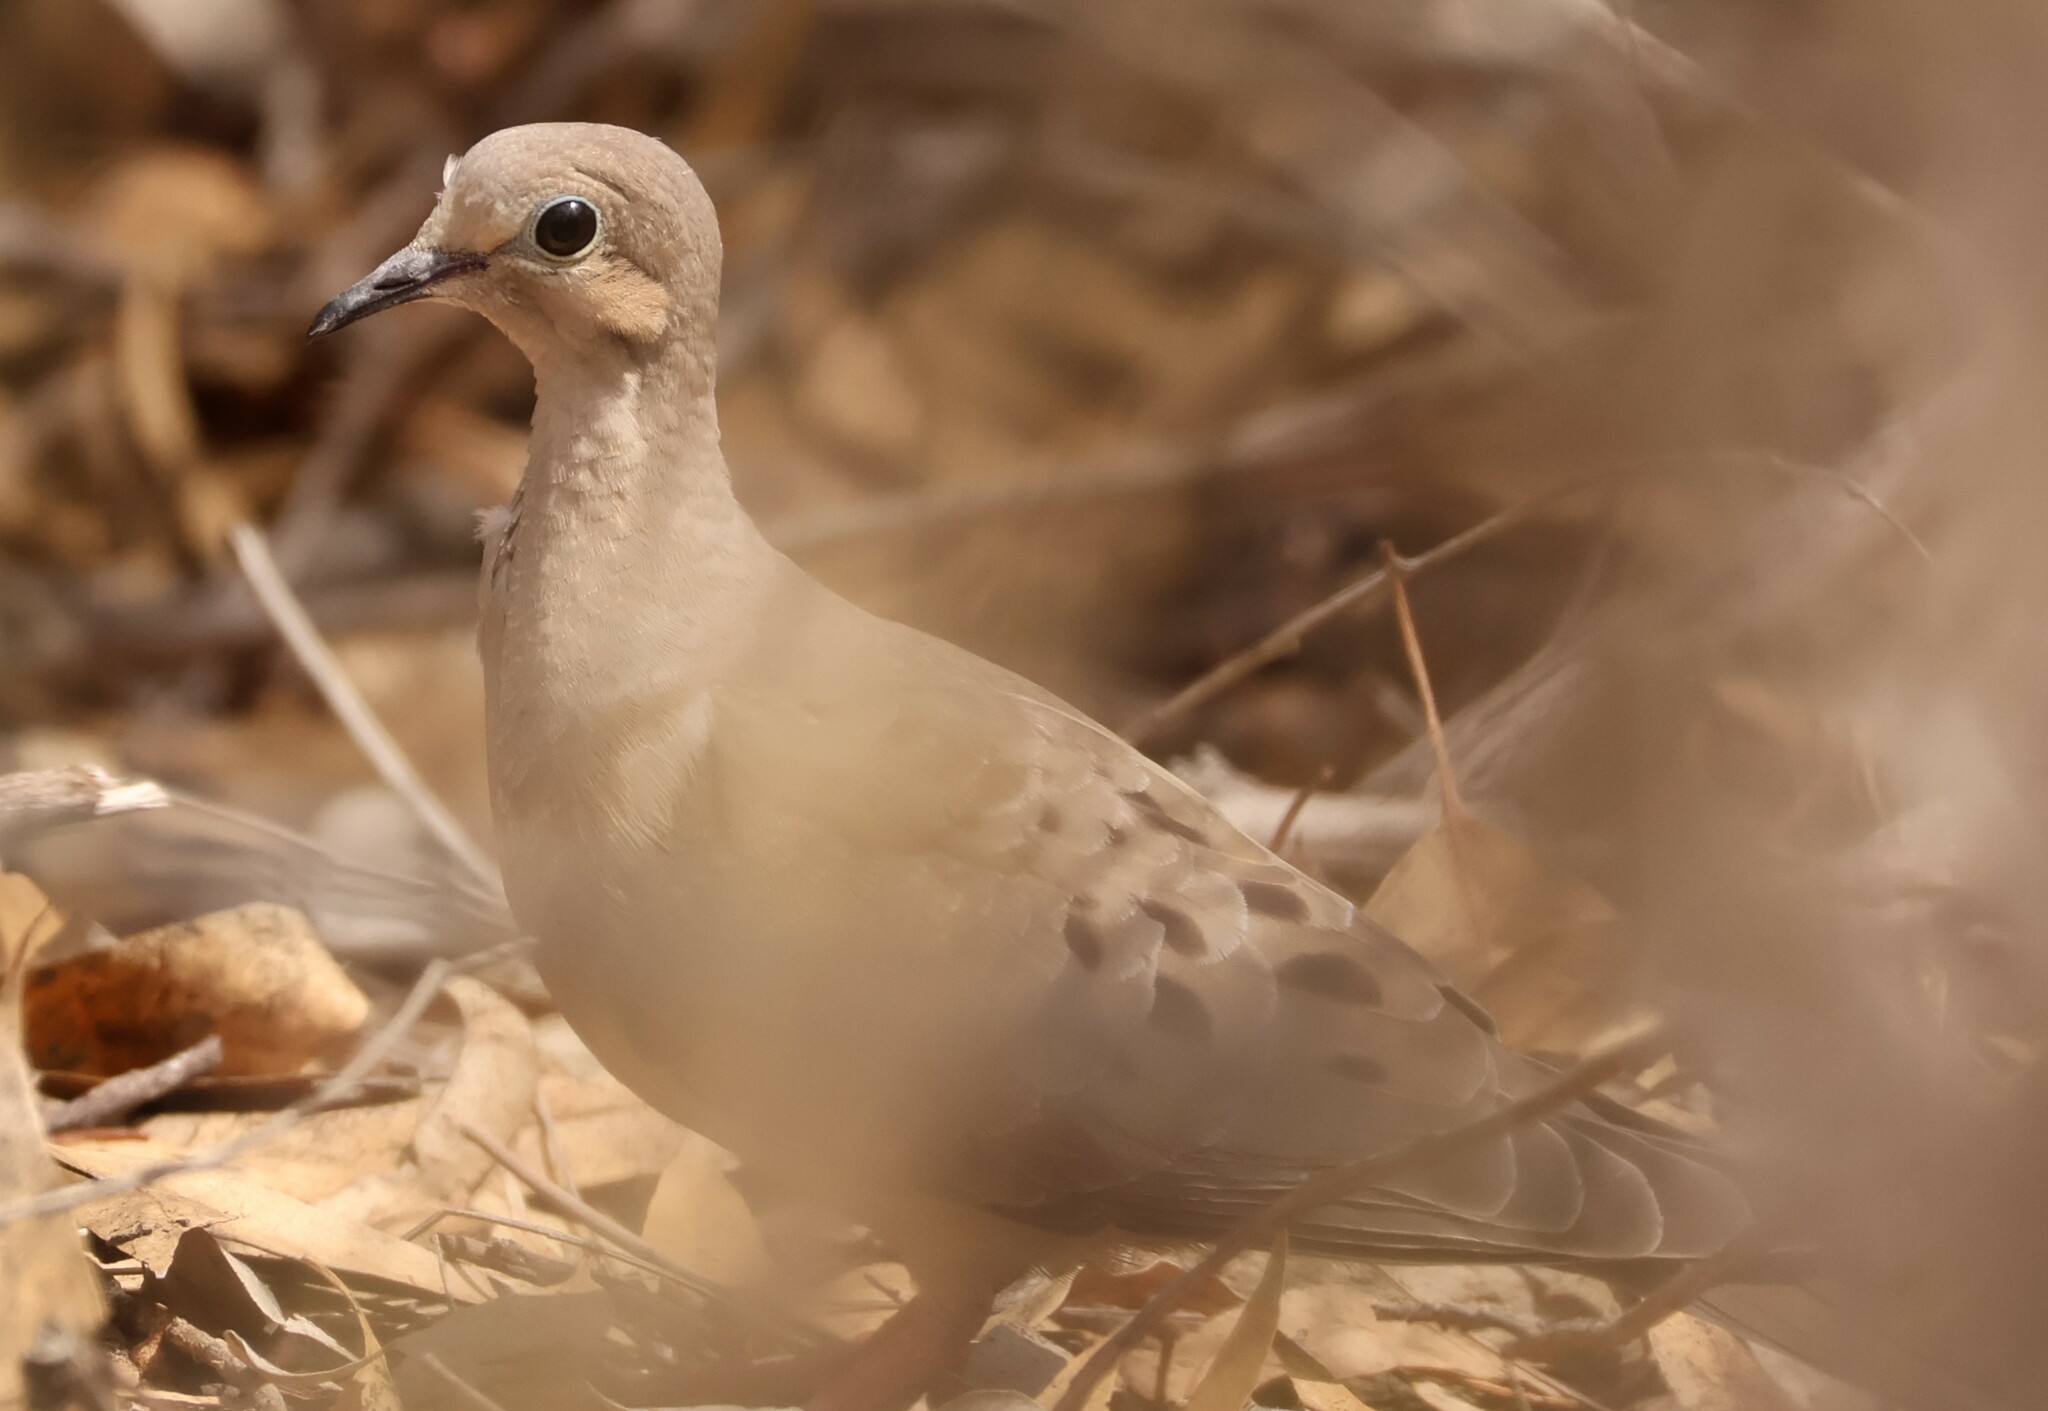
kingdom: Animalia
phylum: Chordata
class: Aves
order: Columbiformes
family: Columbidae
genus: Zenaida
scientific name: Zenaida macroura
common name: Mourning dove
